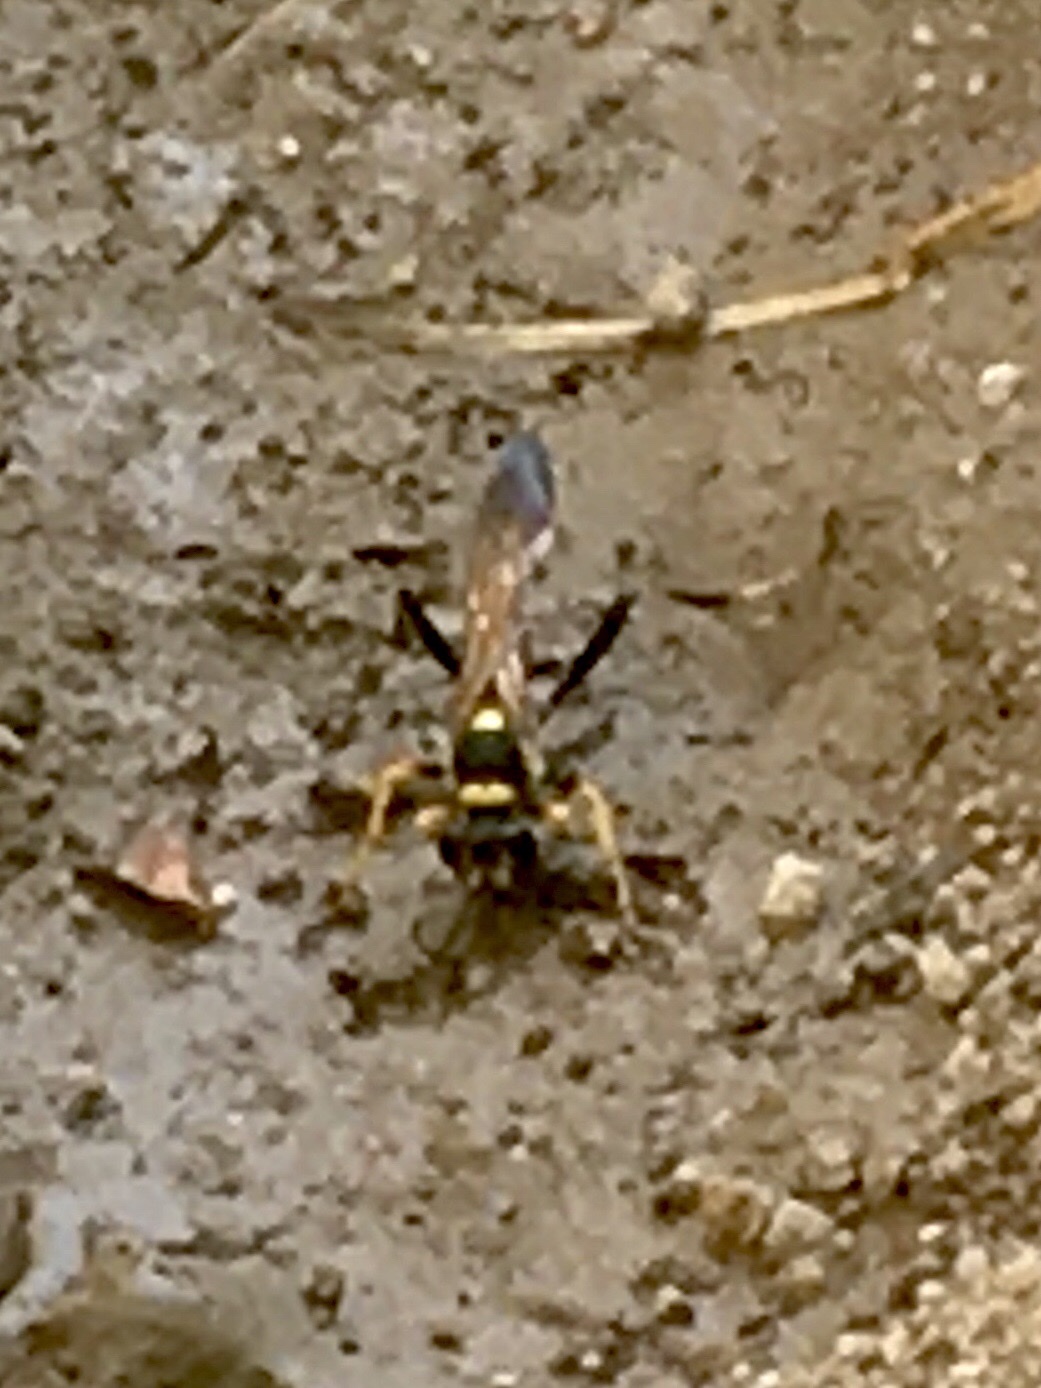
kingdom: Animalia
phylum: Arthropoda
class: Insecta
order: Hymenoptera
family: Sphecidae
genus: Sceliphron
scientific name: Sceliphron caementarium
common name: Mud dauber
